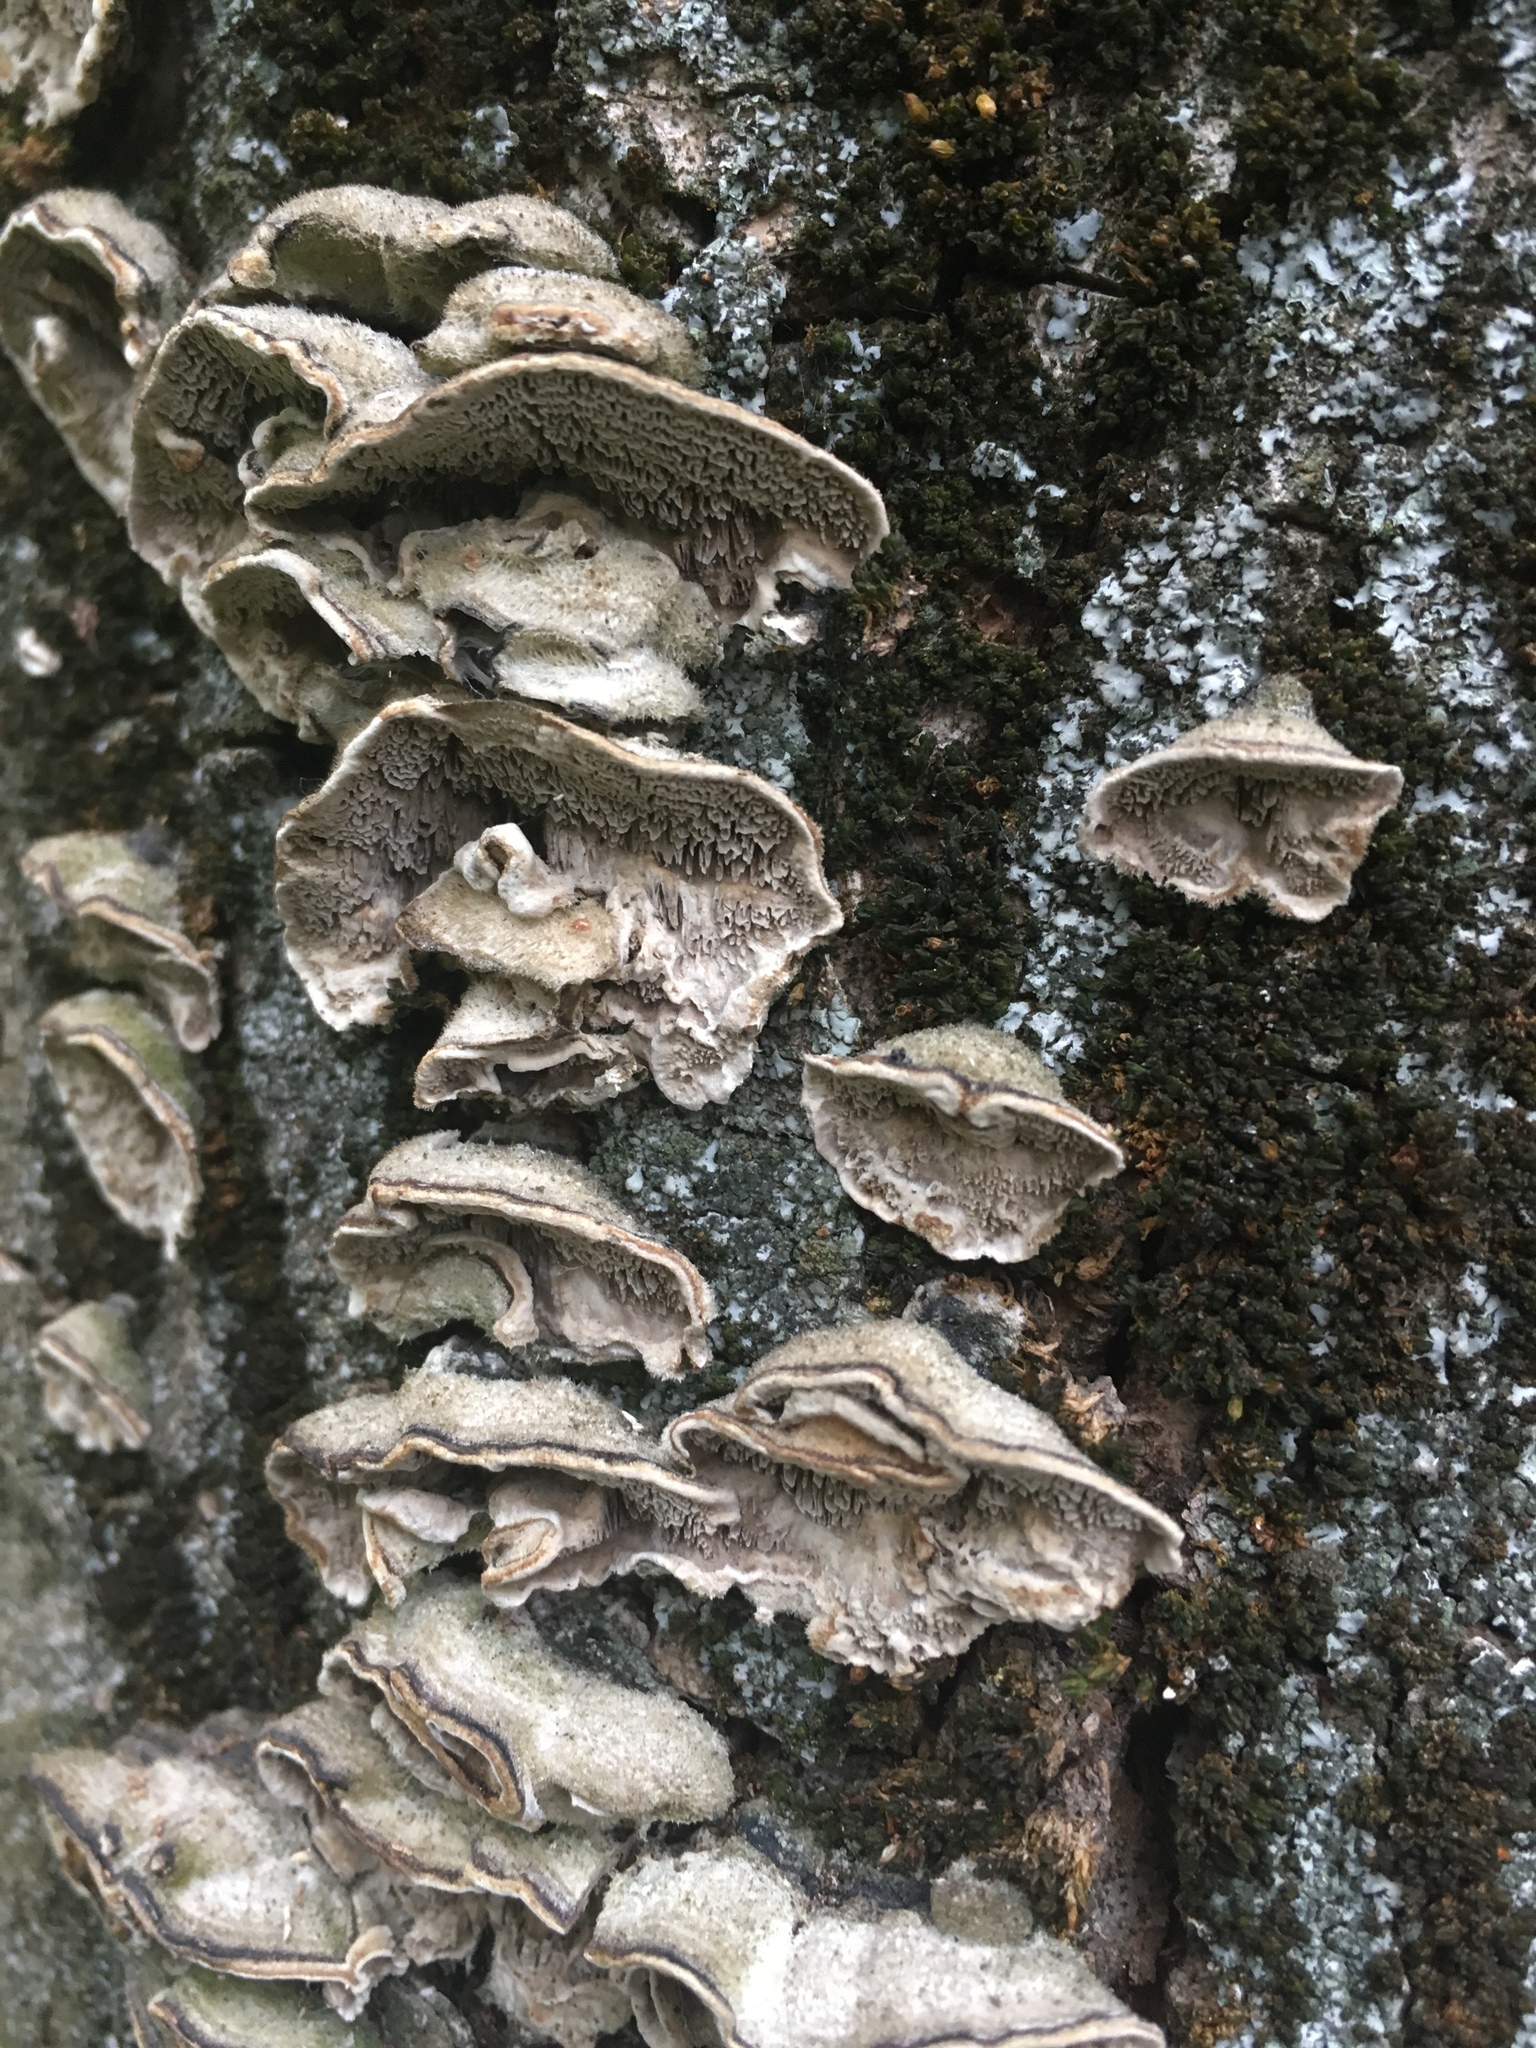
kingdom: Fungi
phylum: Basidiomycota
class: Agaricomycetes
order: Polyporales
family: Cerrenaceae
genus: Cerrena
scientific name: Cerrena unicolor
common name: Mossy maze polypore
